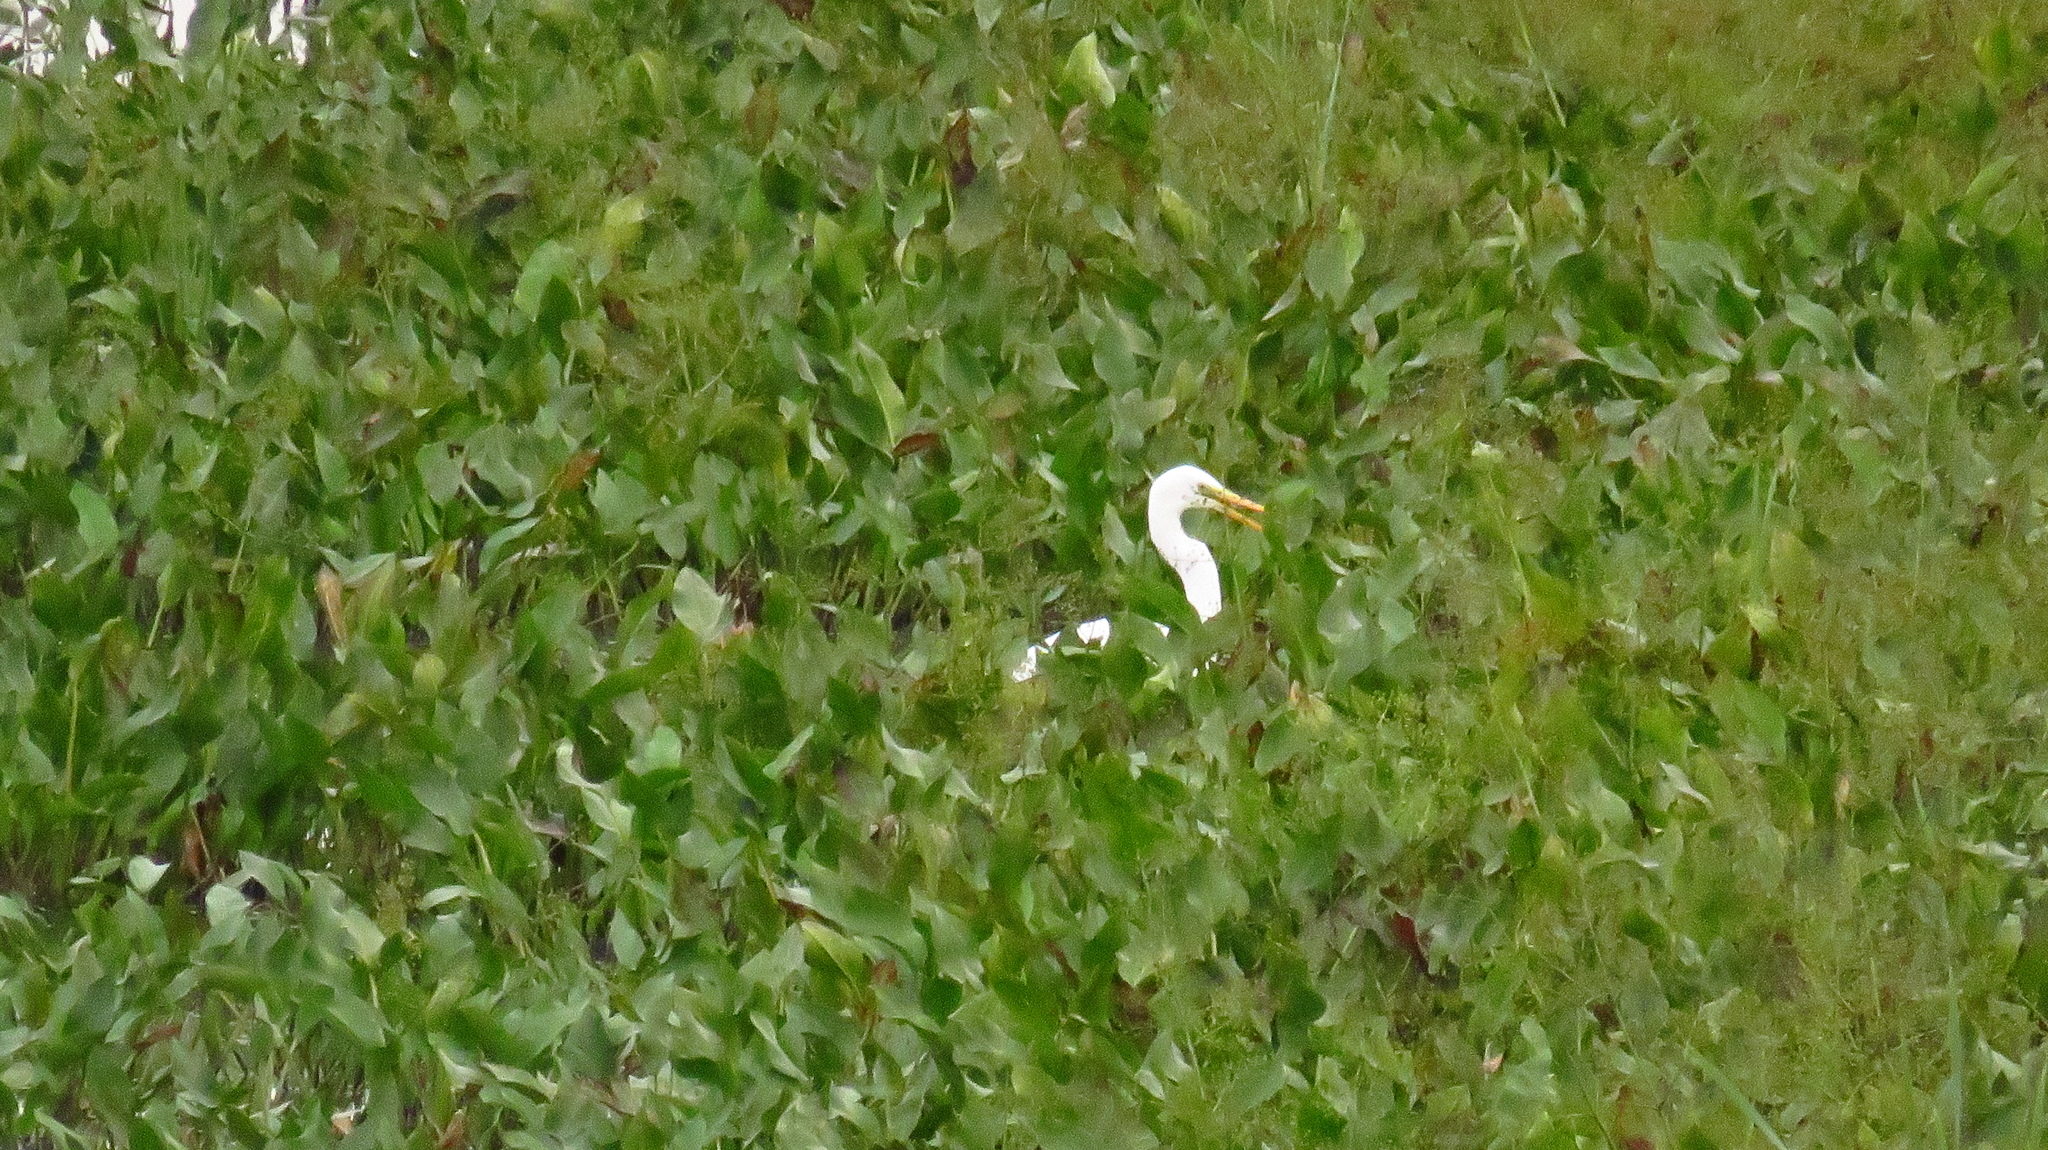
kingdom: Animalia
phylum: Chordata
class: Aves
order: Pelecaniformes
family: Ardeidae
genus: Ardea
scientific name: Ardea alba
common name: Great egret
